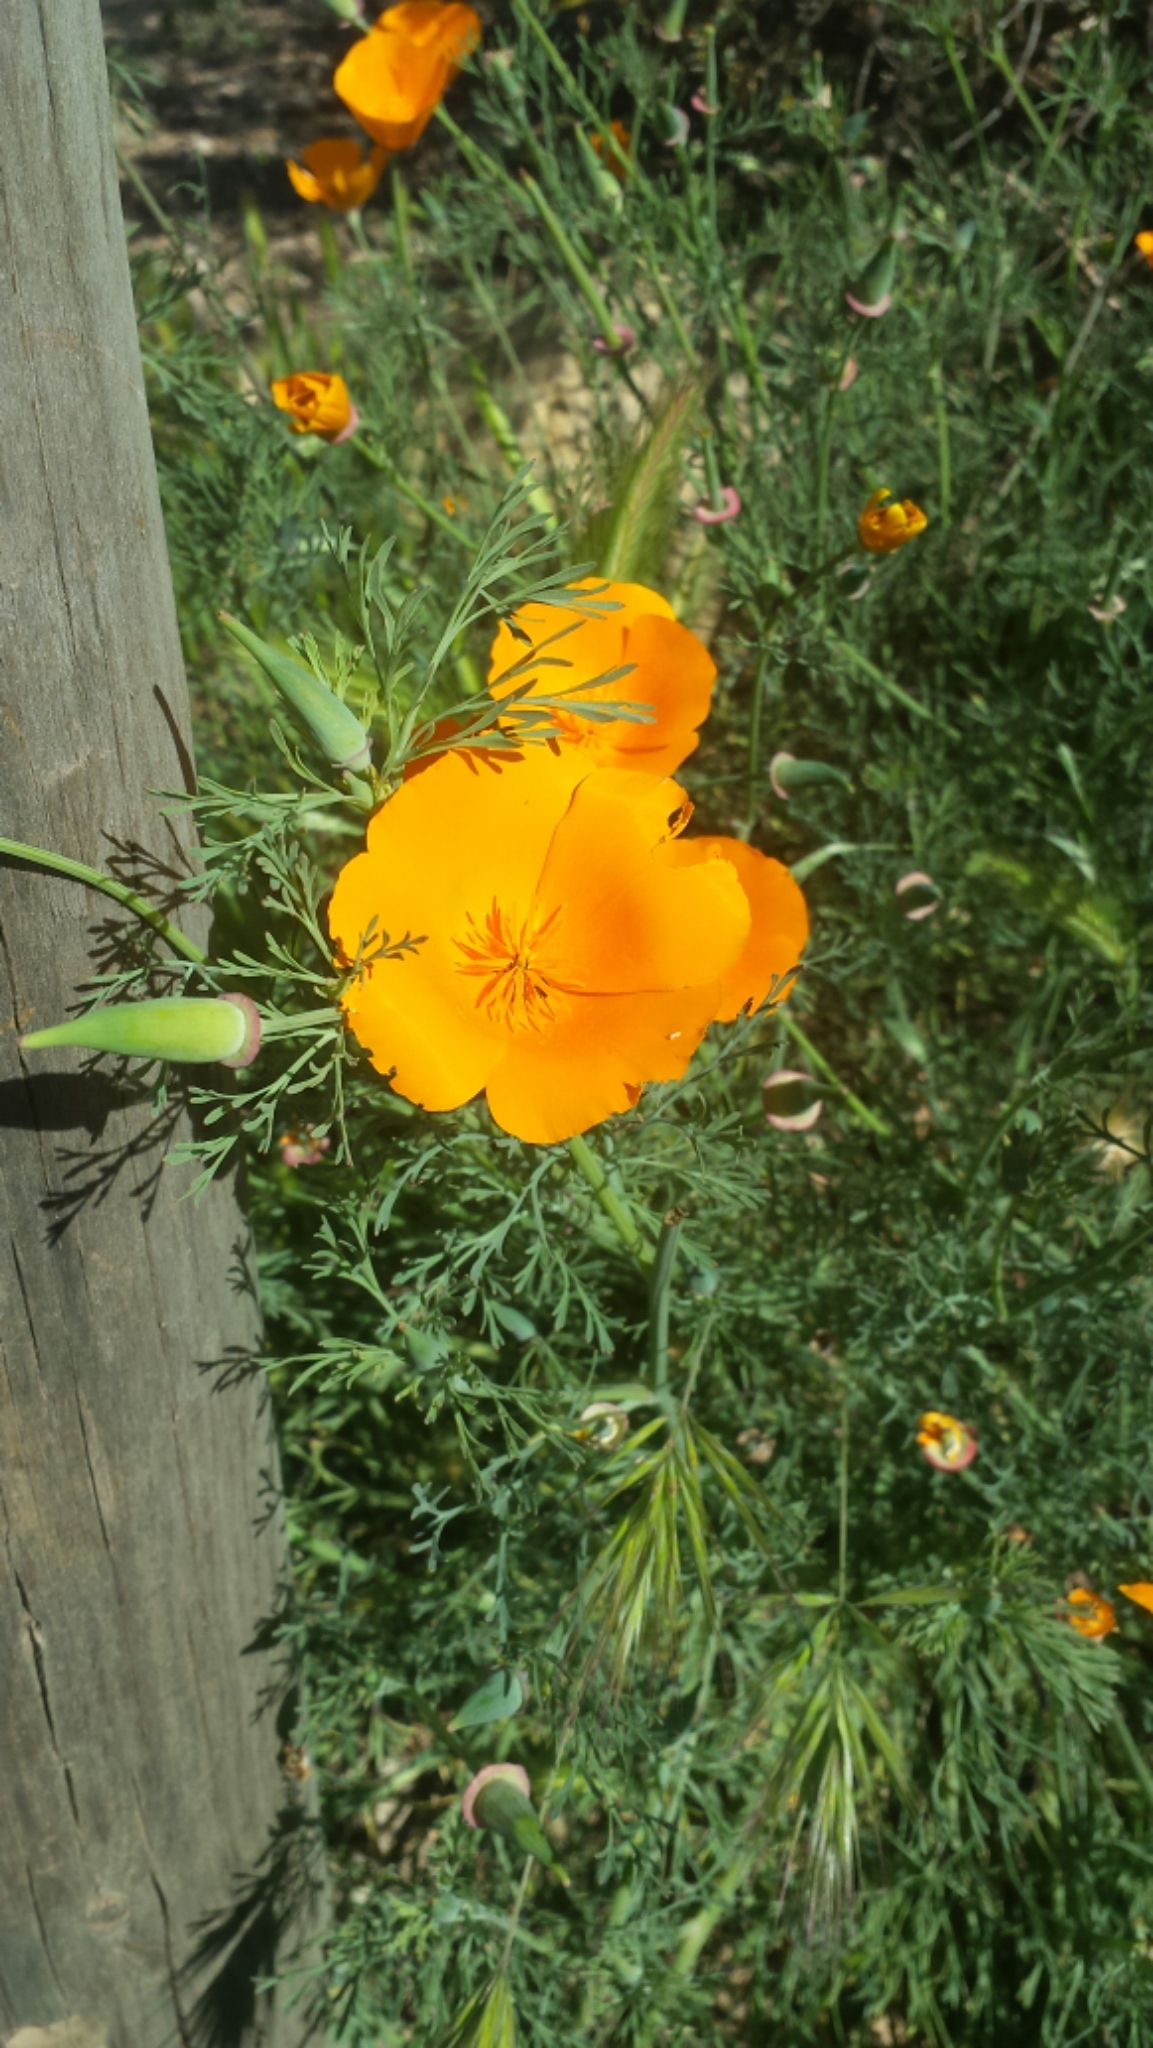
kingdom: Plantae
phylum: Tracheophyta
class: Magnoliopsida
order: Ranunculales
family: Papaveraceae
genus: Eschscholzia
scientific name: Eschscholzia californica
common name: California poppy
